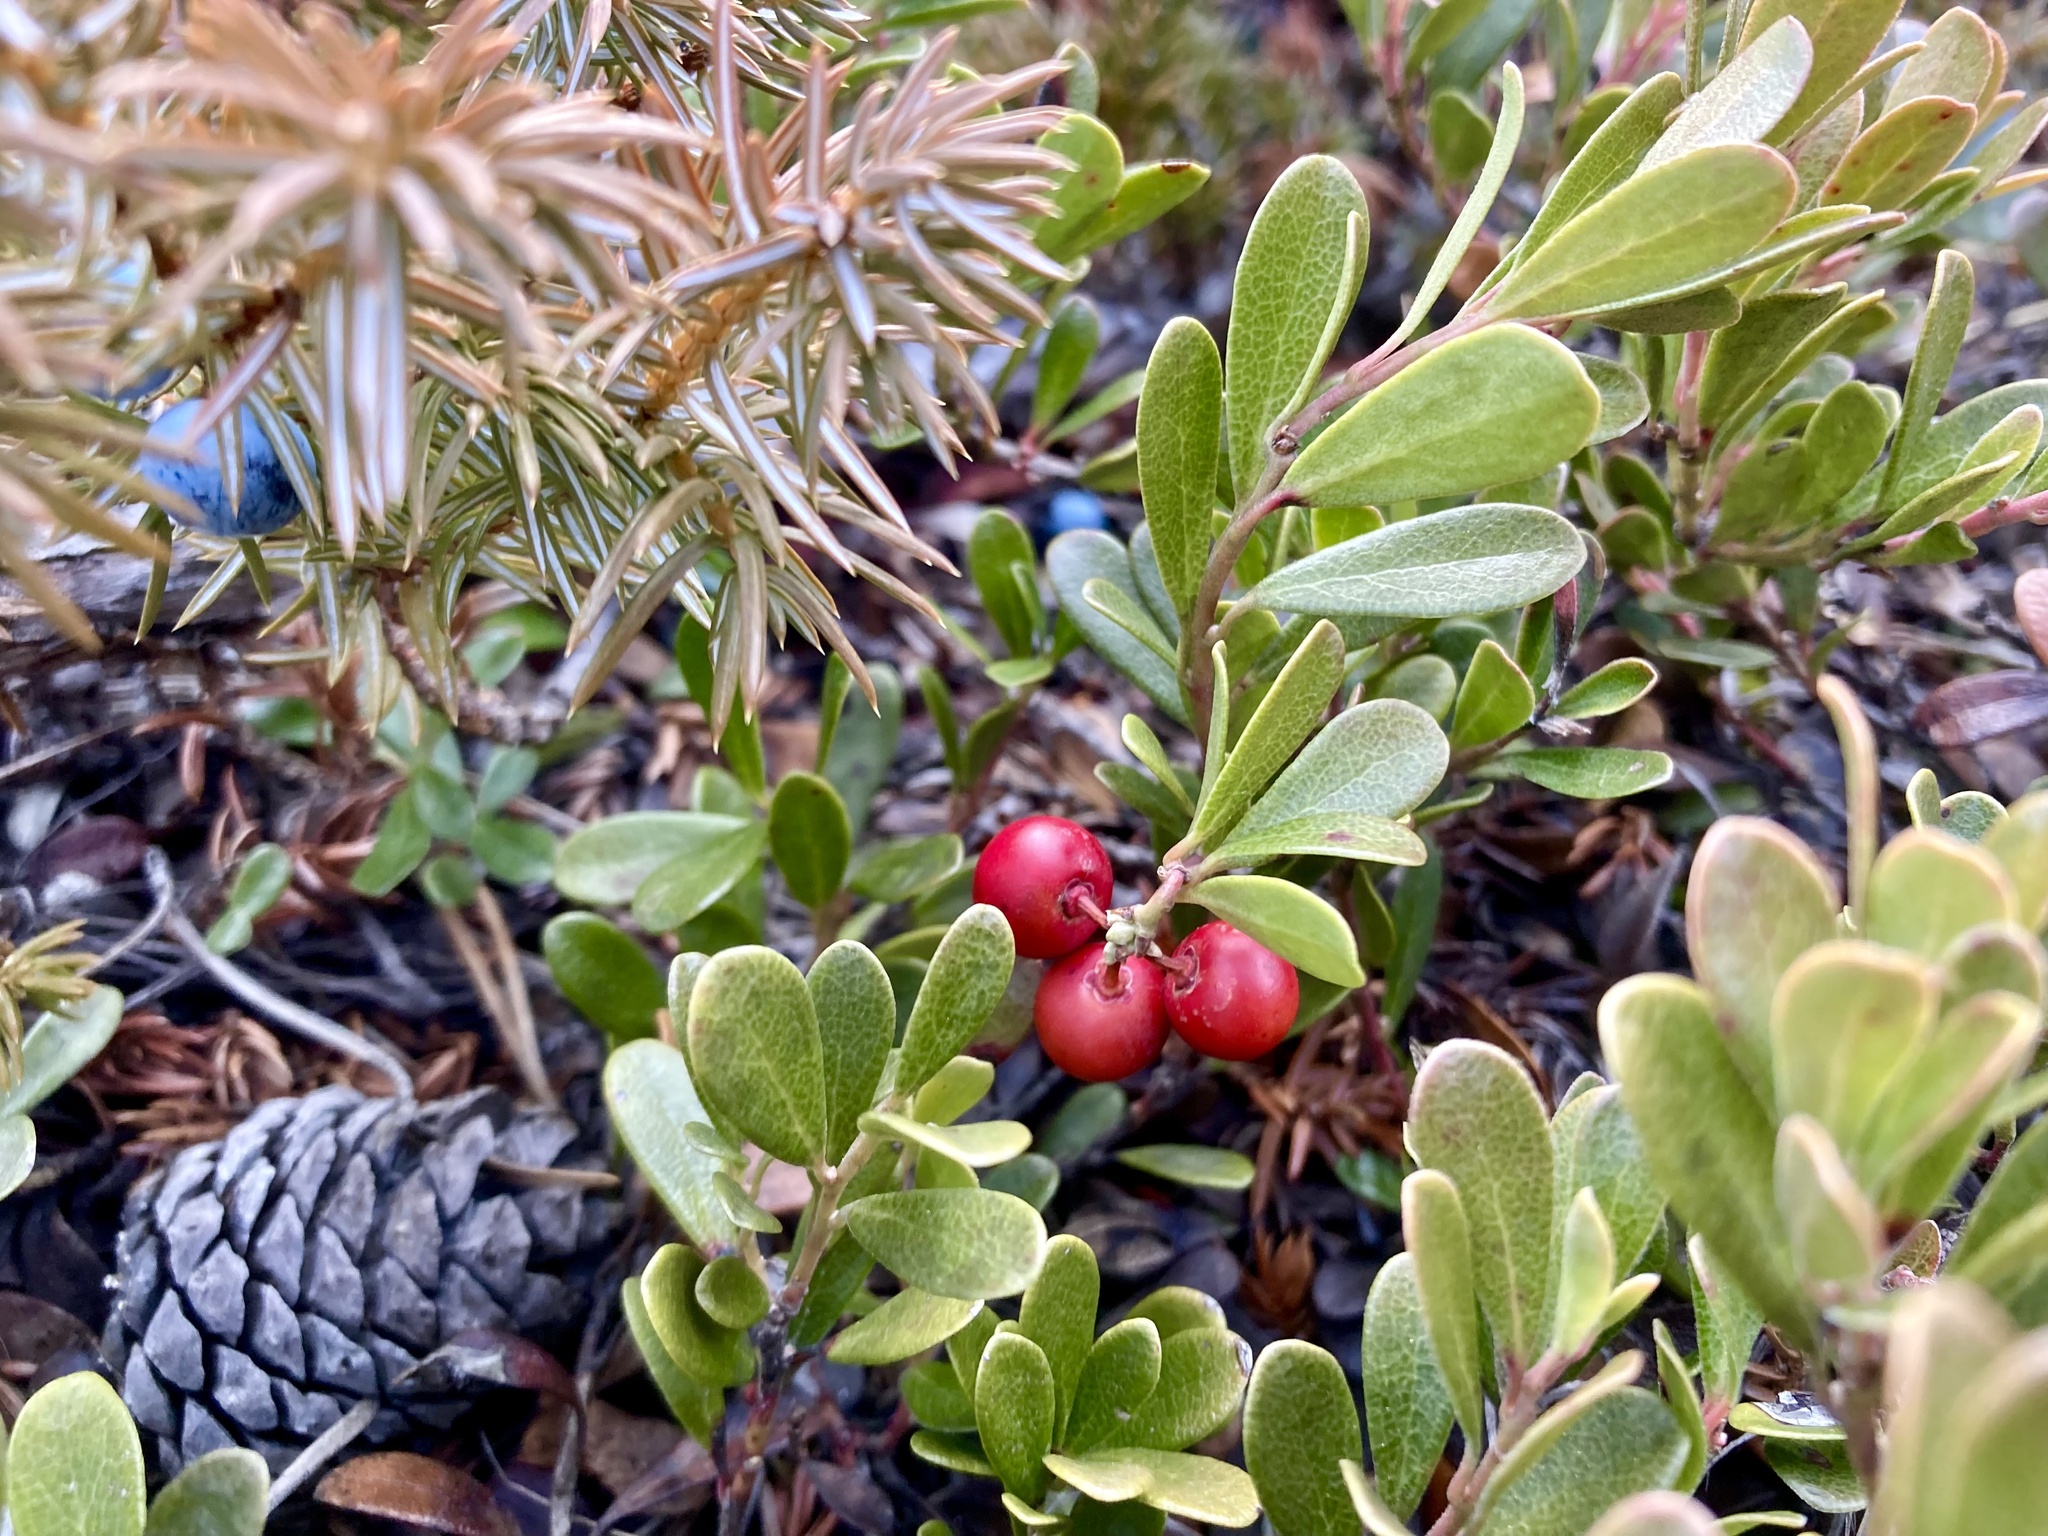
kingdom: Plantae
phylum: Tracheophyta
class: Magnoliopsida
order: Ericales
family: Ericaceae
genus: Arctostaphylos
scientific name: Arctostaphylos uva-ursi
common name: Bearberry
